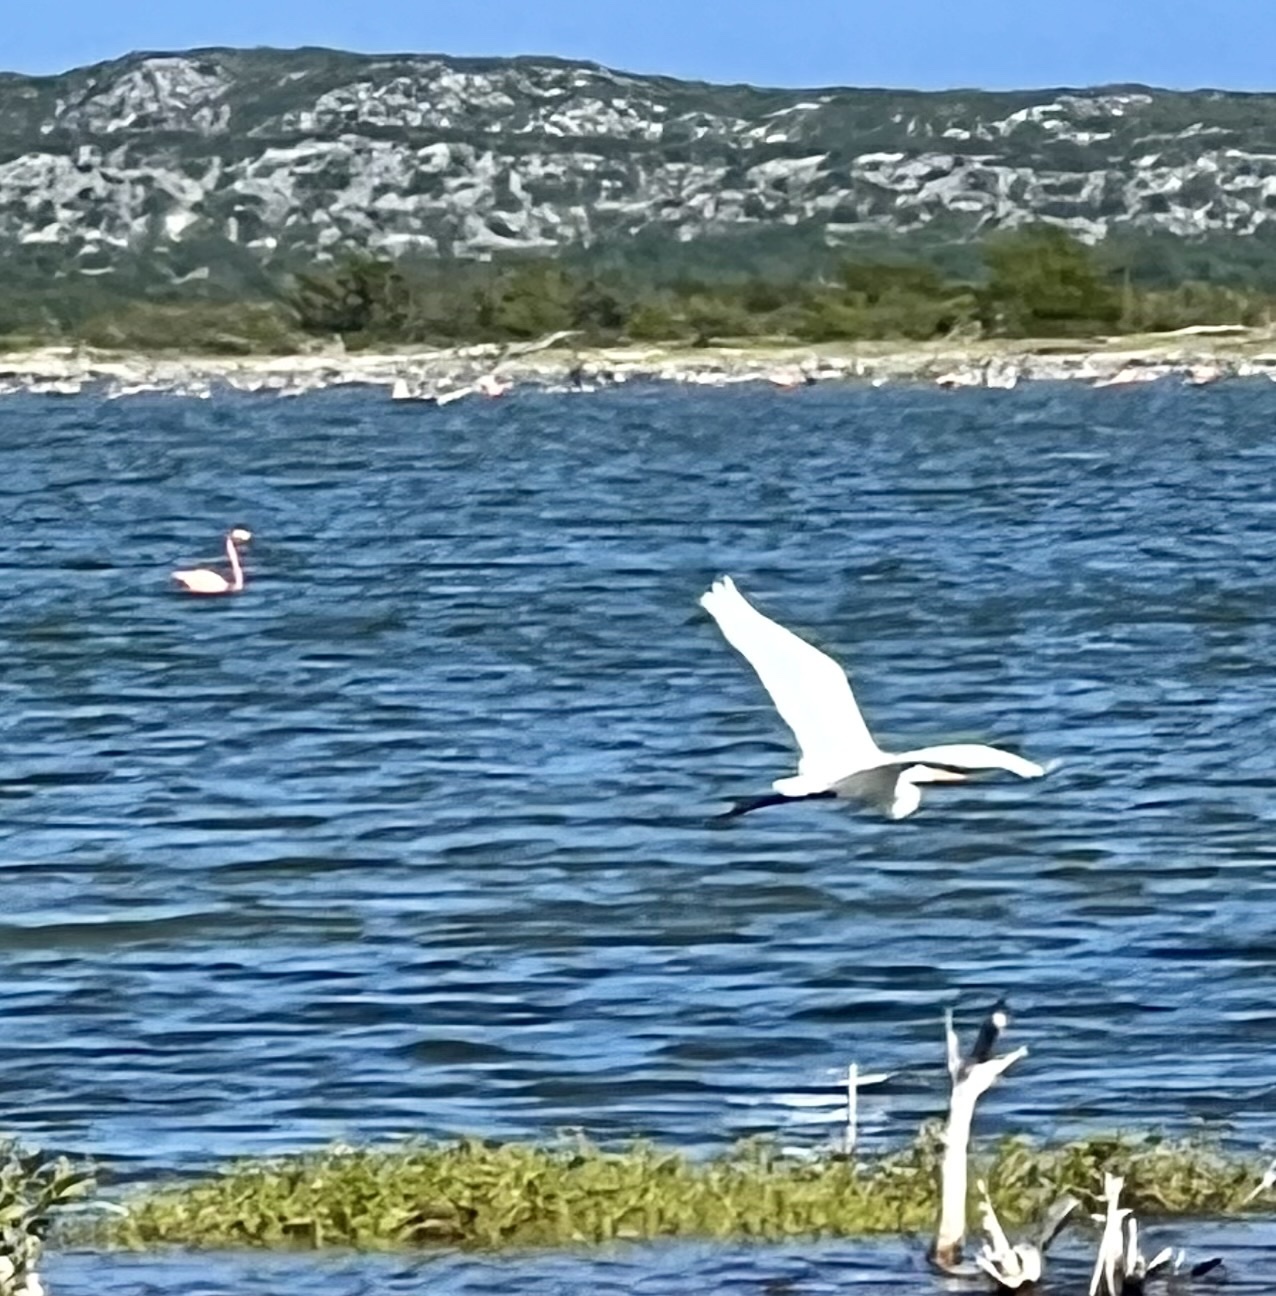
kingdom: Animalia
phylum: Chordata
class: Aves
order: Pelecaniformes
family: Ardeidae
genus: Ardea
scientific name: Ardea alba
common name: Great egret
